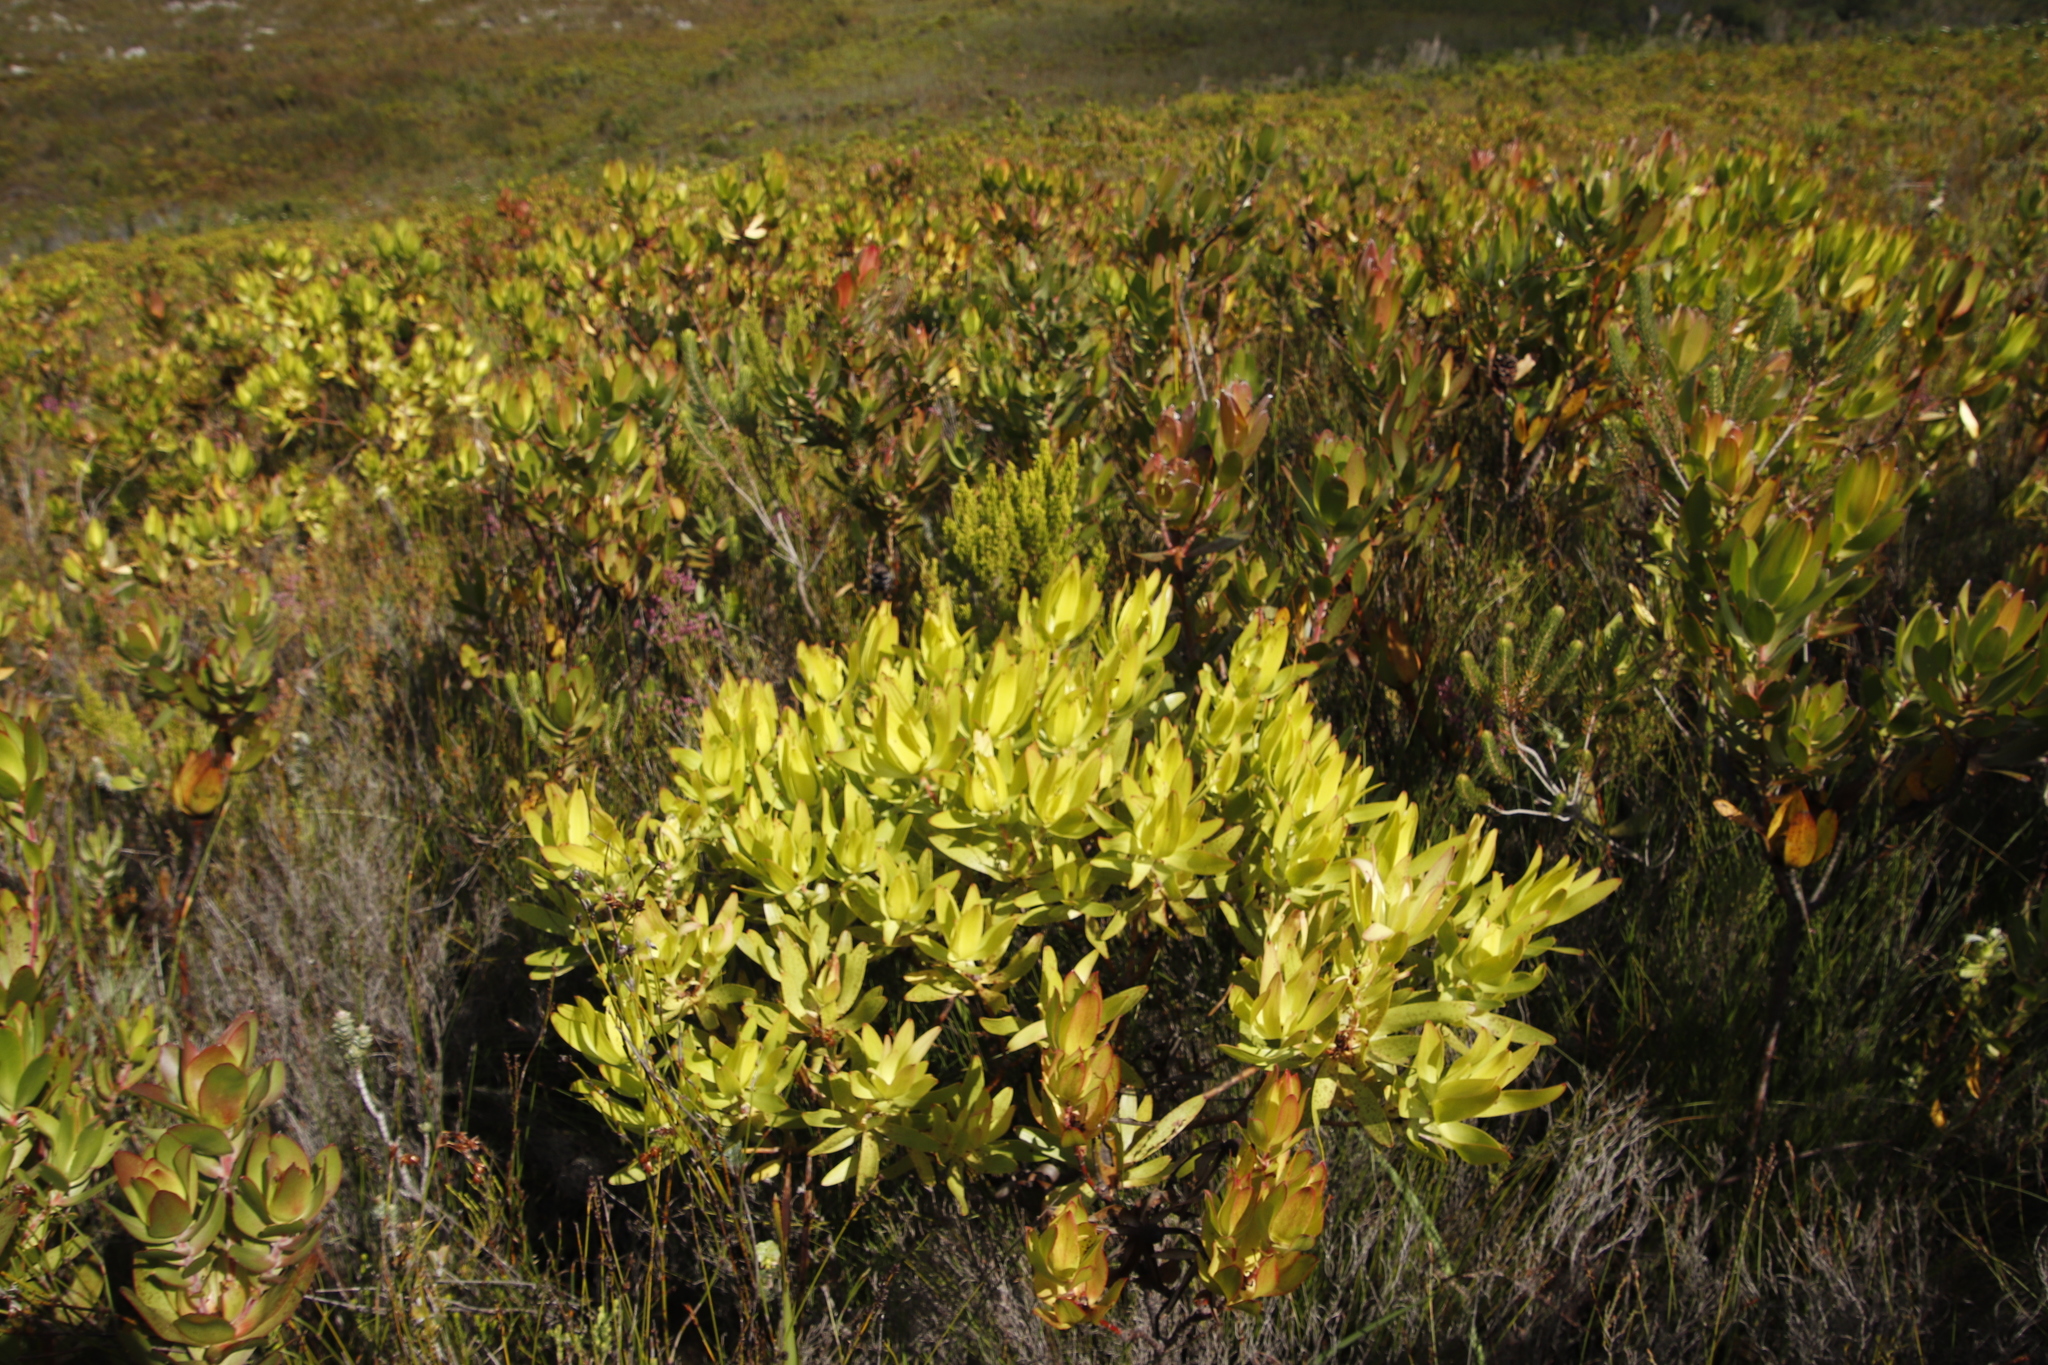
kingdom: Plantae
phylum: Tracheophyta
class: Magnoliopsida
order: Proteales
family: Proteaceae
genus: Leucadendron
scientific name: Leucadendron gandogeri
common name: Broad-leaf conebush
